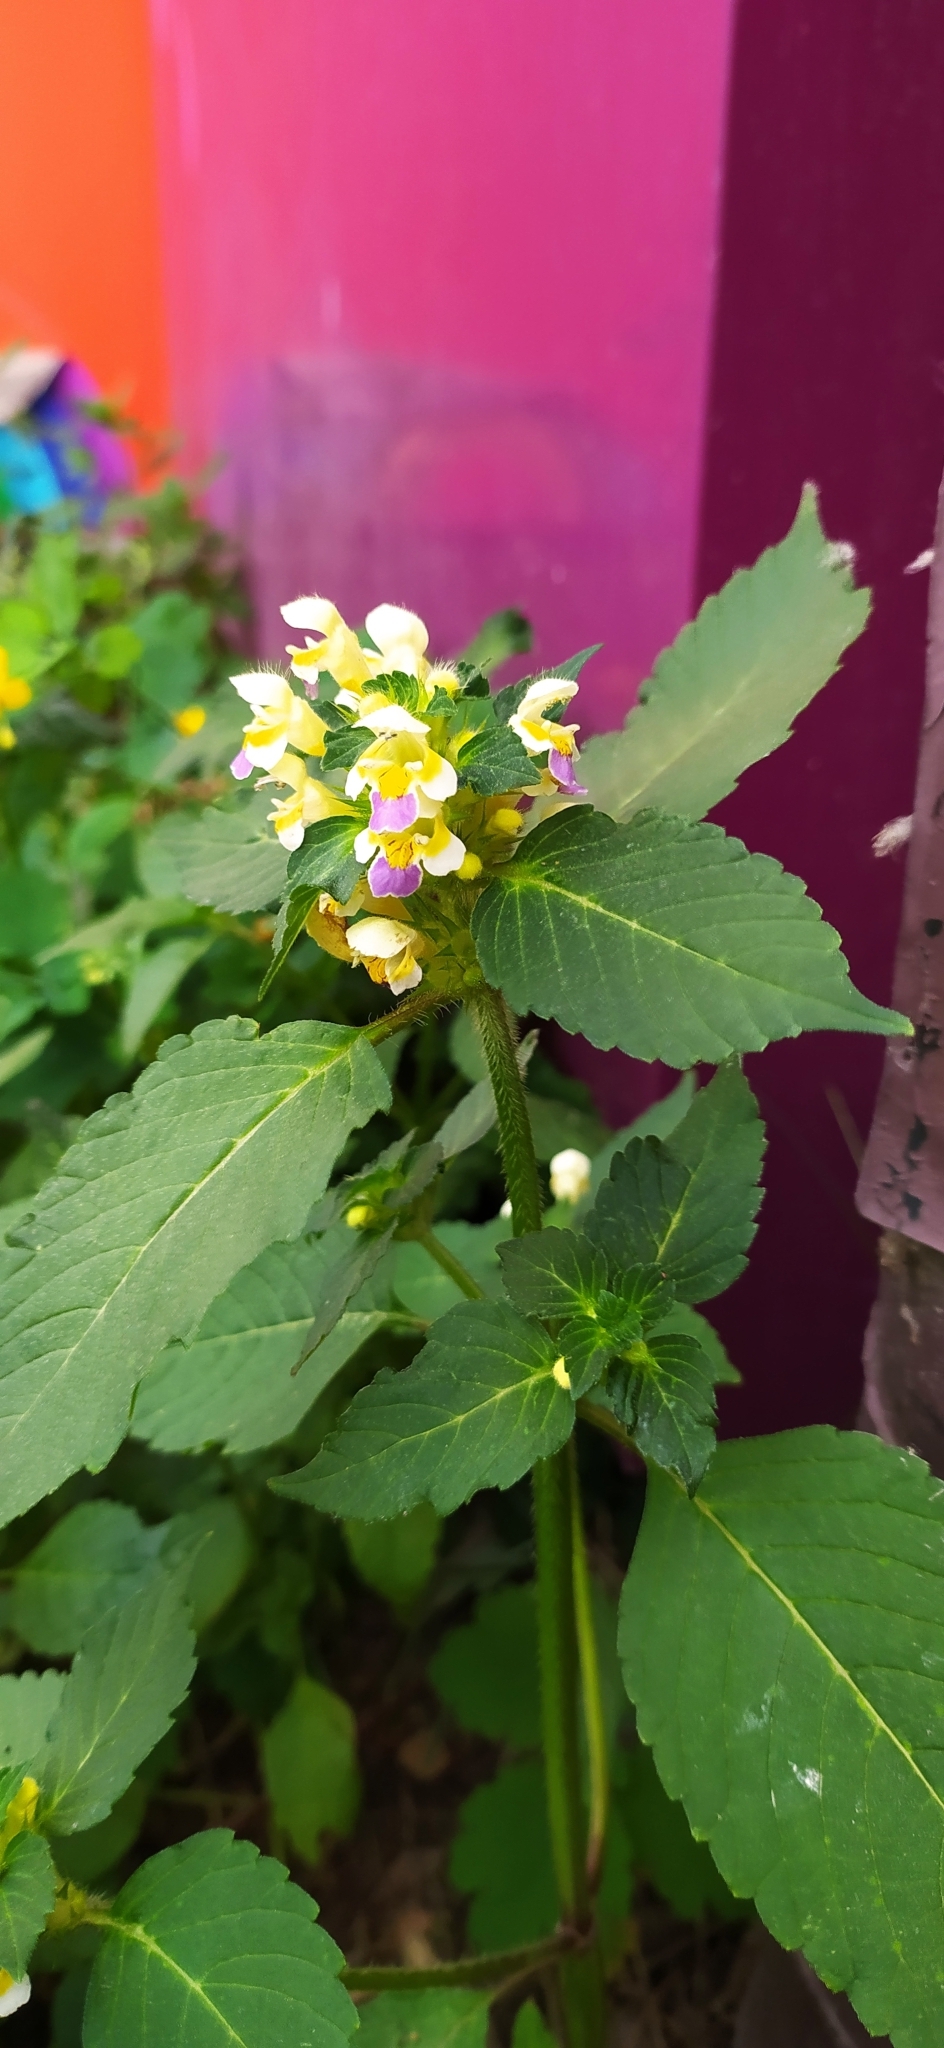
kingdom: Plantae
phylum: Tracheophyta
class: Magnoliopsida
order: Lamiales
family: Lamiaceae
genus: Galeopsis
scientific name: Galeopsis speciosa
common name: Large-flowered hemp-nettle
